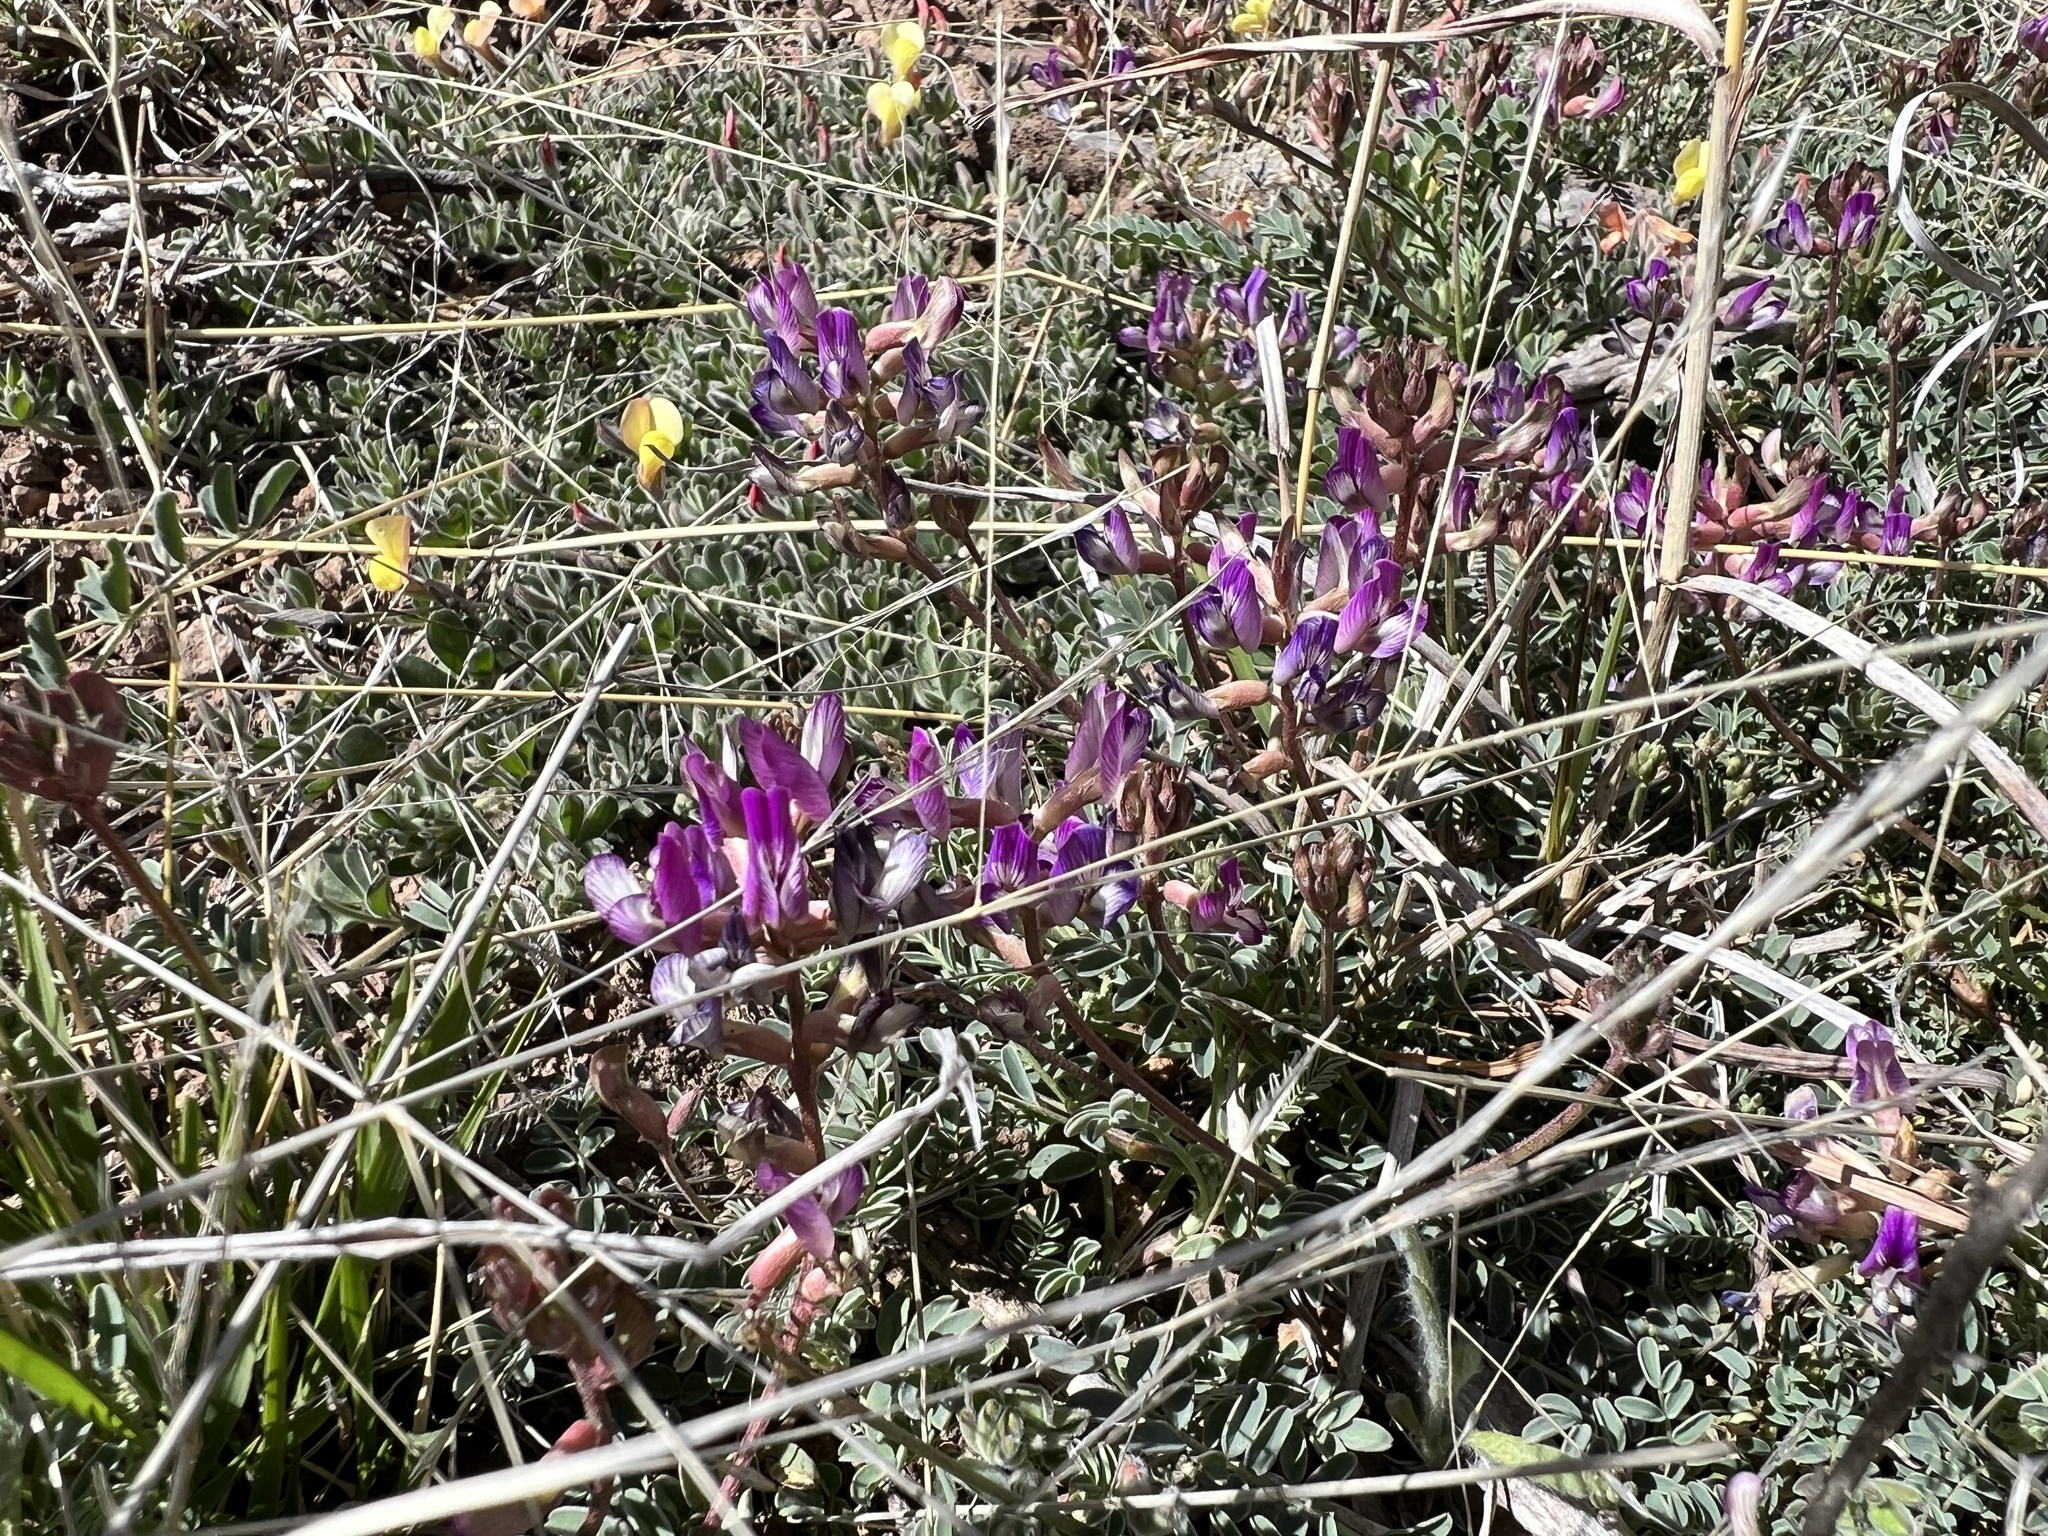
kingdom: Plantae
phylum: Tracheophyta
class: Magnoliopsida
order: Fabales
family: Fabaceae
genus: Astragalus
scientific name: Astragalus nothoxys
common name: Beaked milk-vetch
